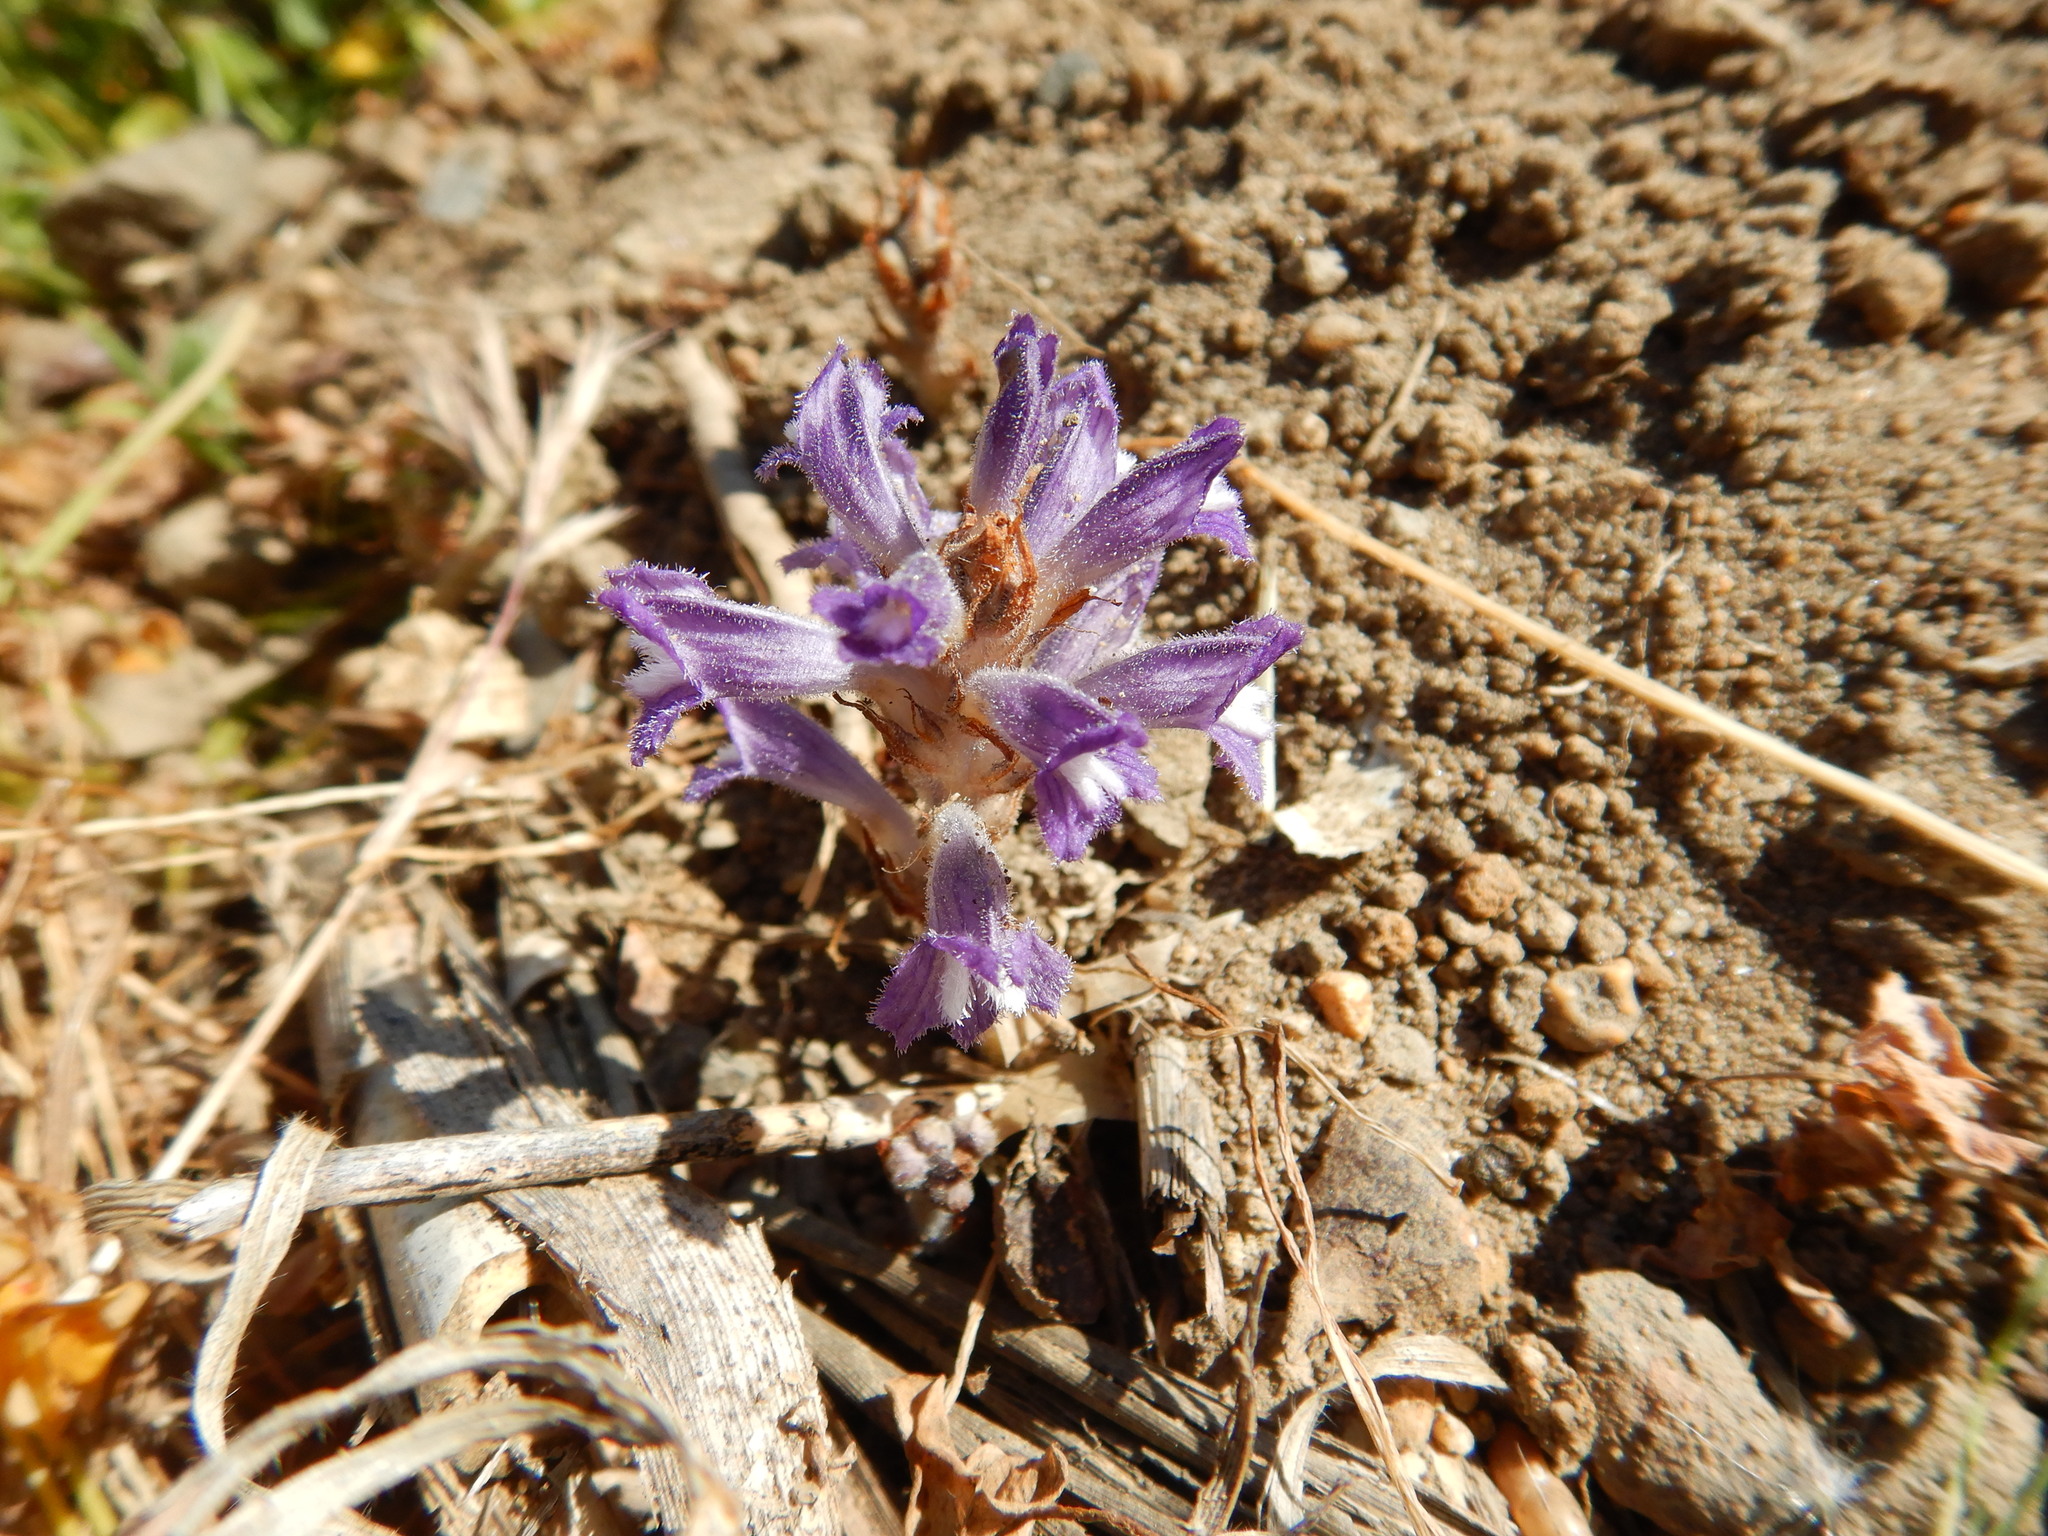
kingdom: Plantae
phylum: Tracheophyta
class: Magnoliopsida
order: Lamiales
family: Orobanchaceae
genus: Phelipanche
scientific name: Phelipanche mutelii
